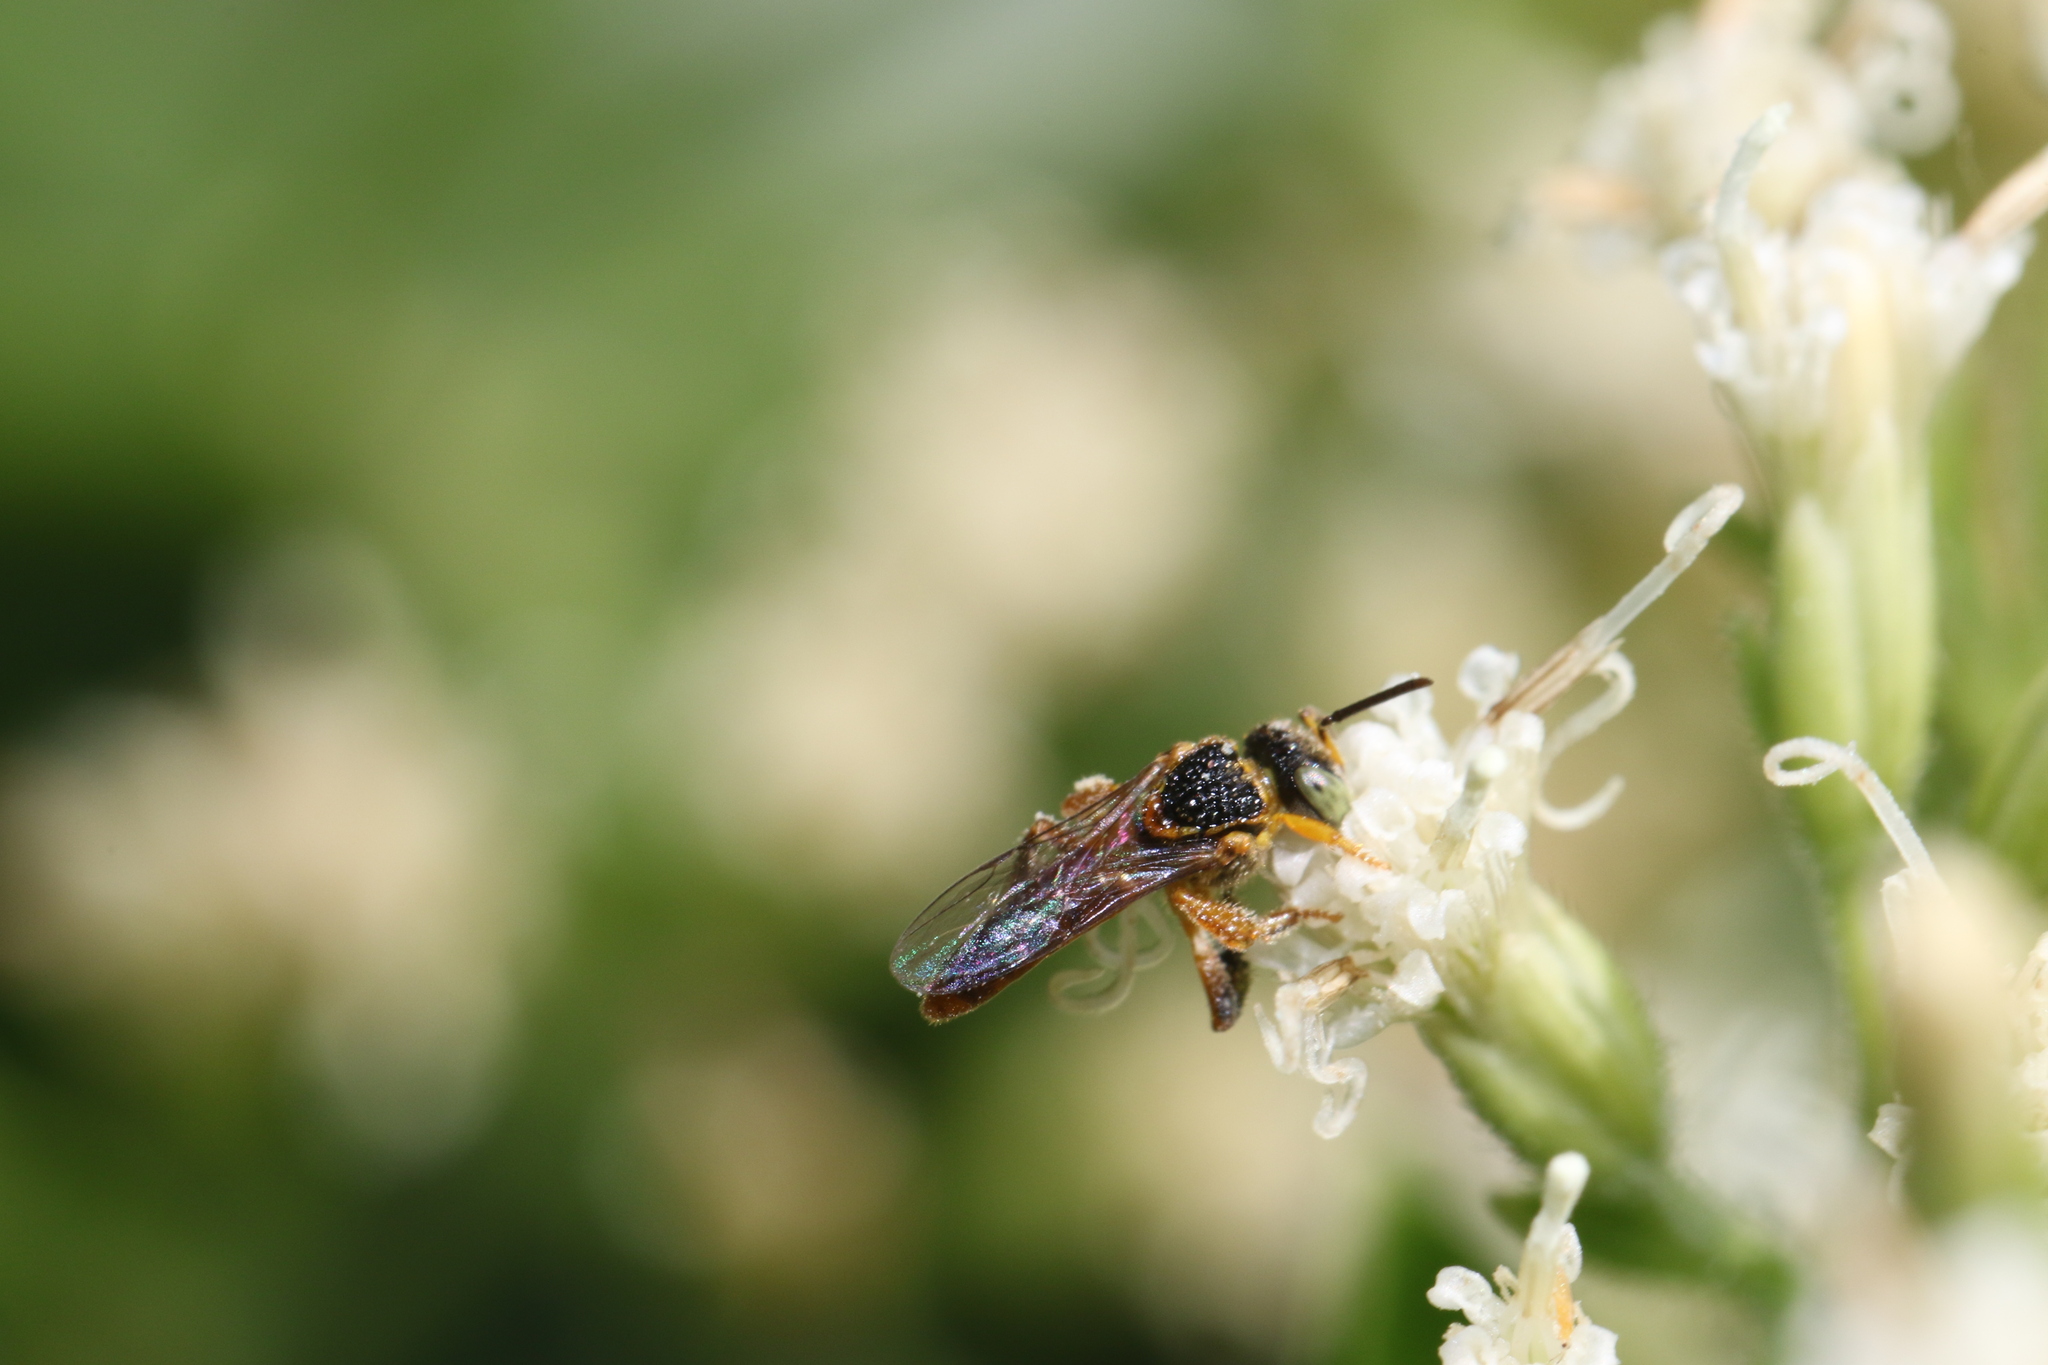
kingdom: Animalia
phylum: Arthropoda
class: Insecta
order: Hymenoptera
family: Apidae
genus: Tetragonisca
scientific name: Tetragonisca angustula
